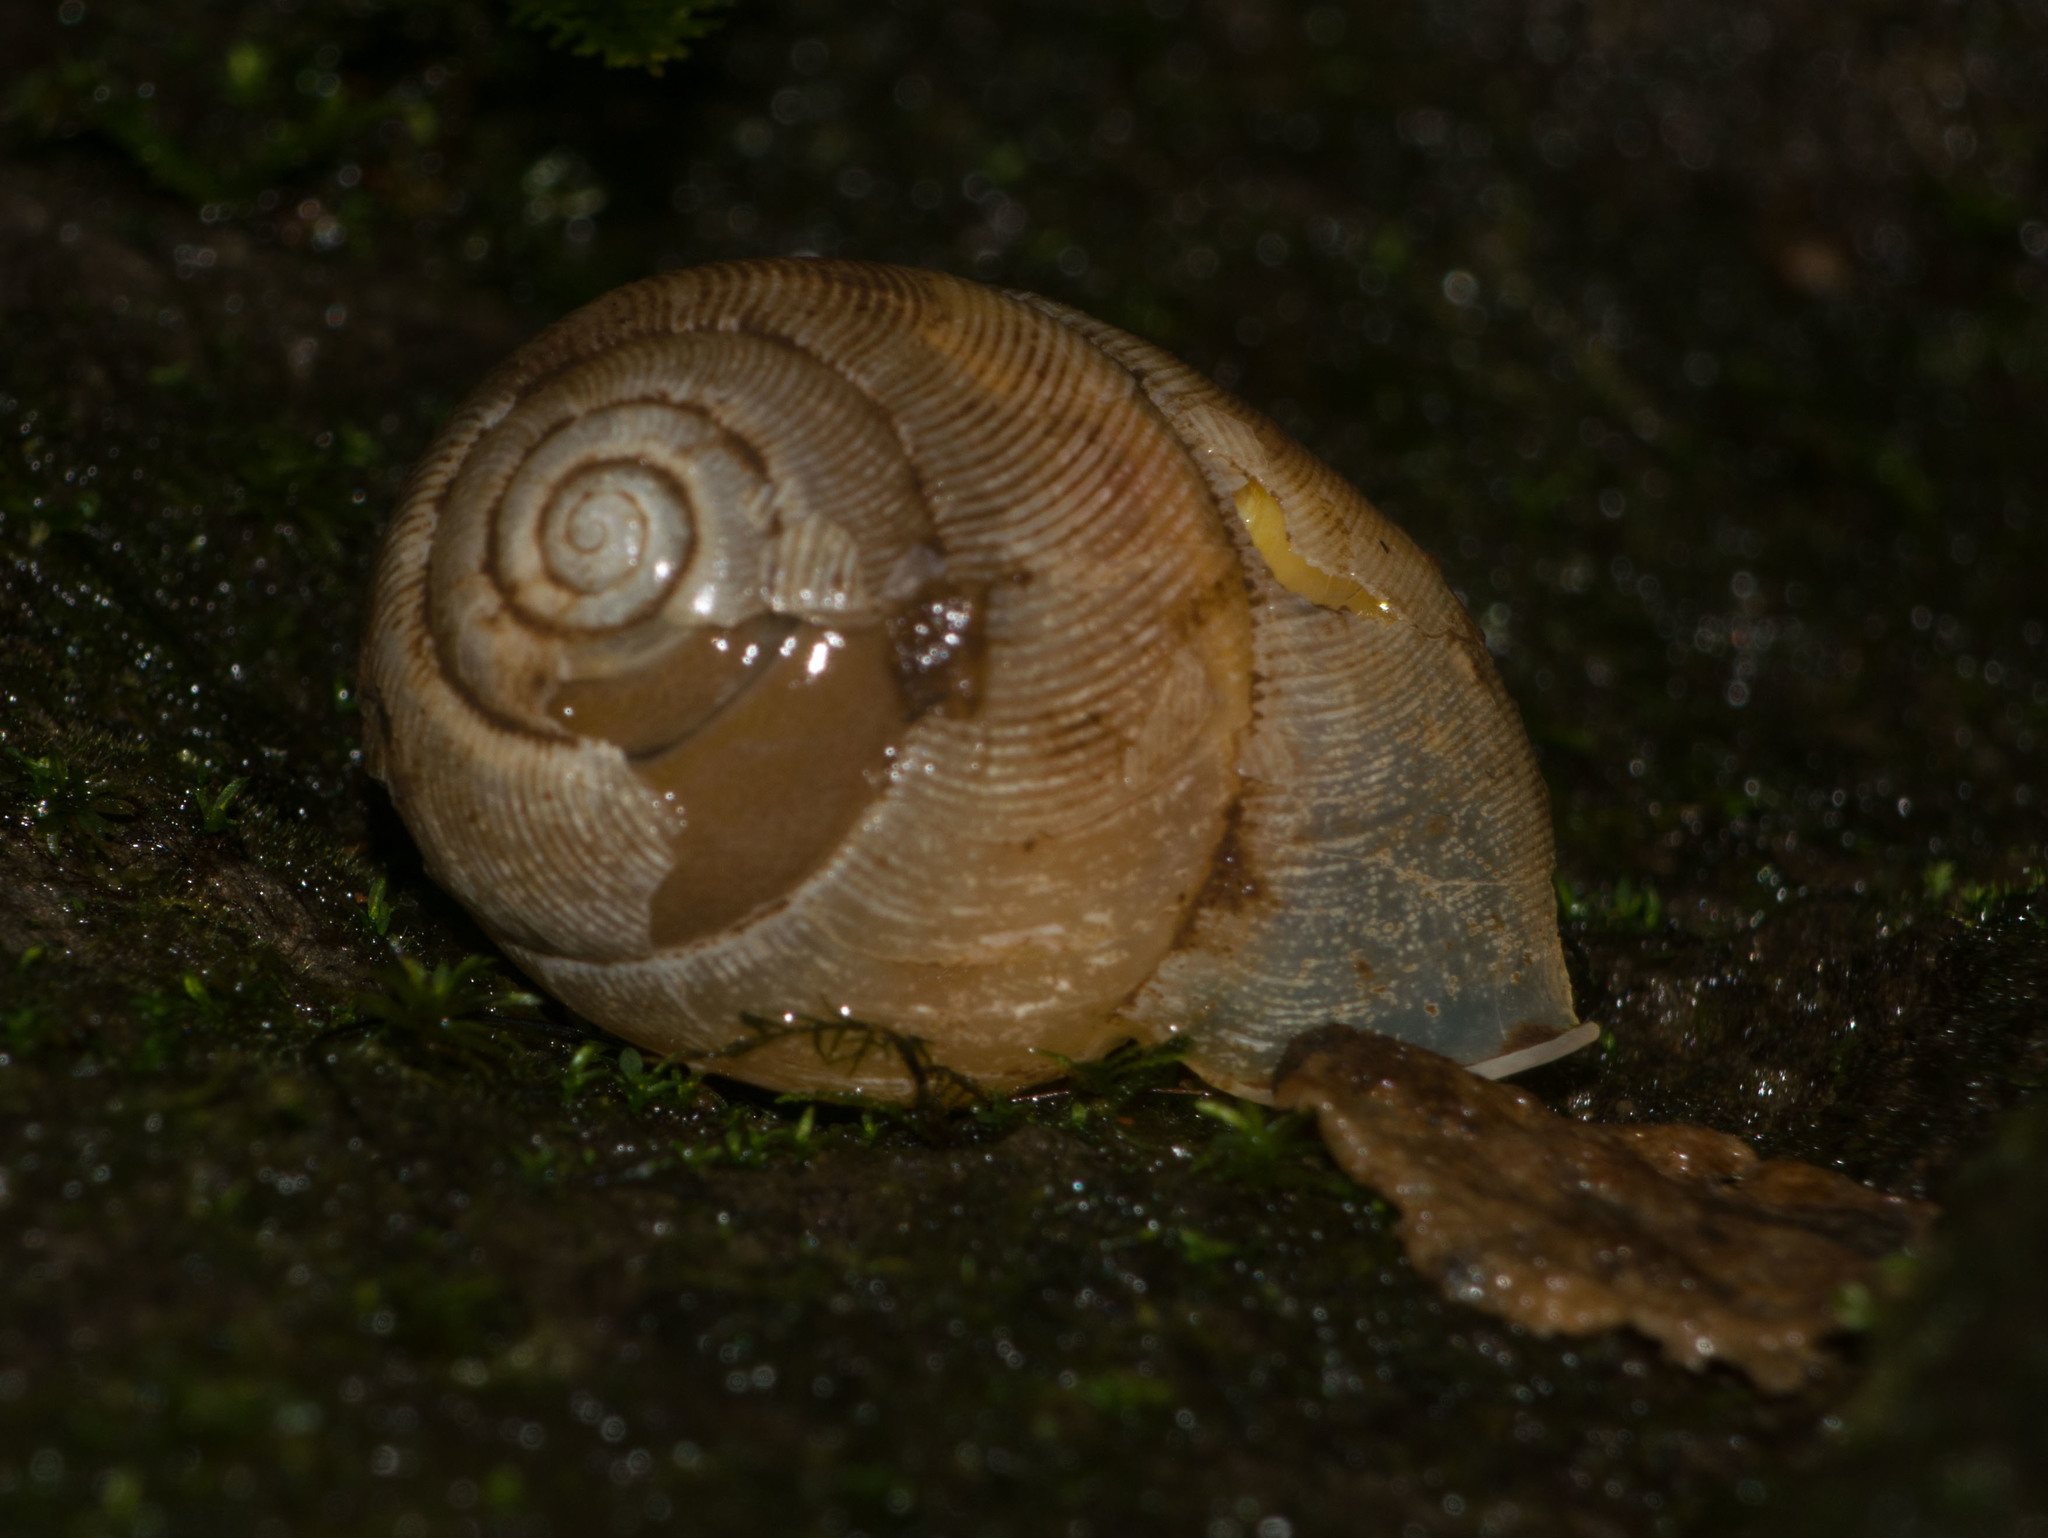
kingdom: Animalia
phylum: Mollusca
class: Gastropoda
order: Stylommatophora
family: Streptaxidae
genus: Tayloria
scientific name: Tayloria kibweziensis
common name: Snail
